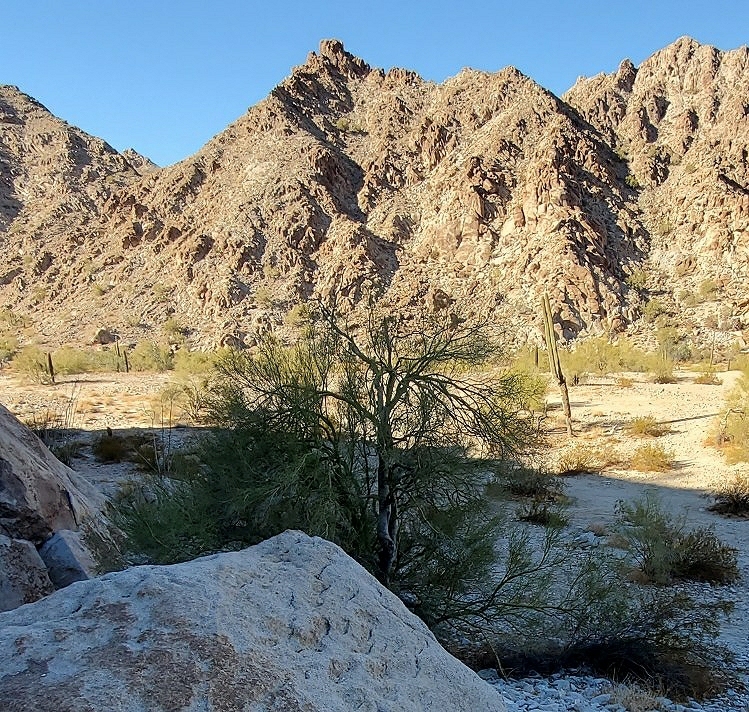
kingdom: Plantae
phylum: Tracheophyta
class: Magnoliopsida
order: Fabales
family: Fabaceae
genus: Parkinsonia
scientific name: Parkinsonia microphylla
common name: Yellow paloverde
